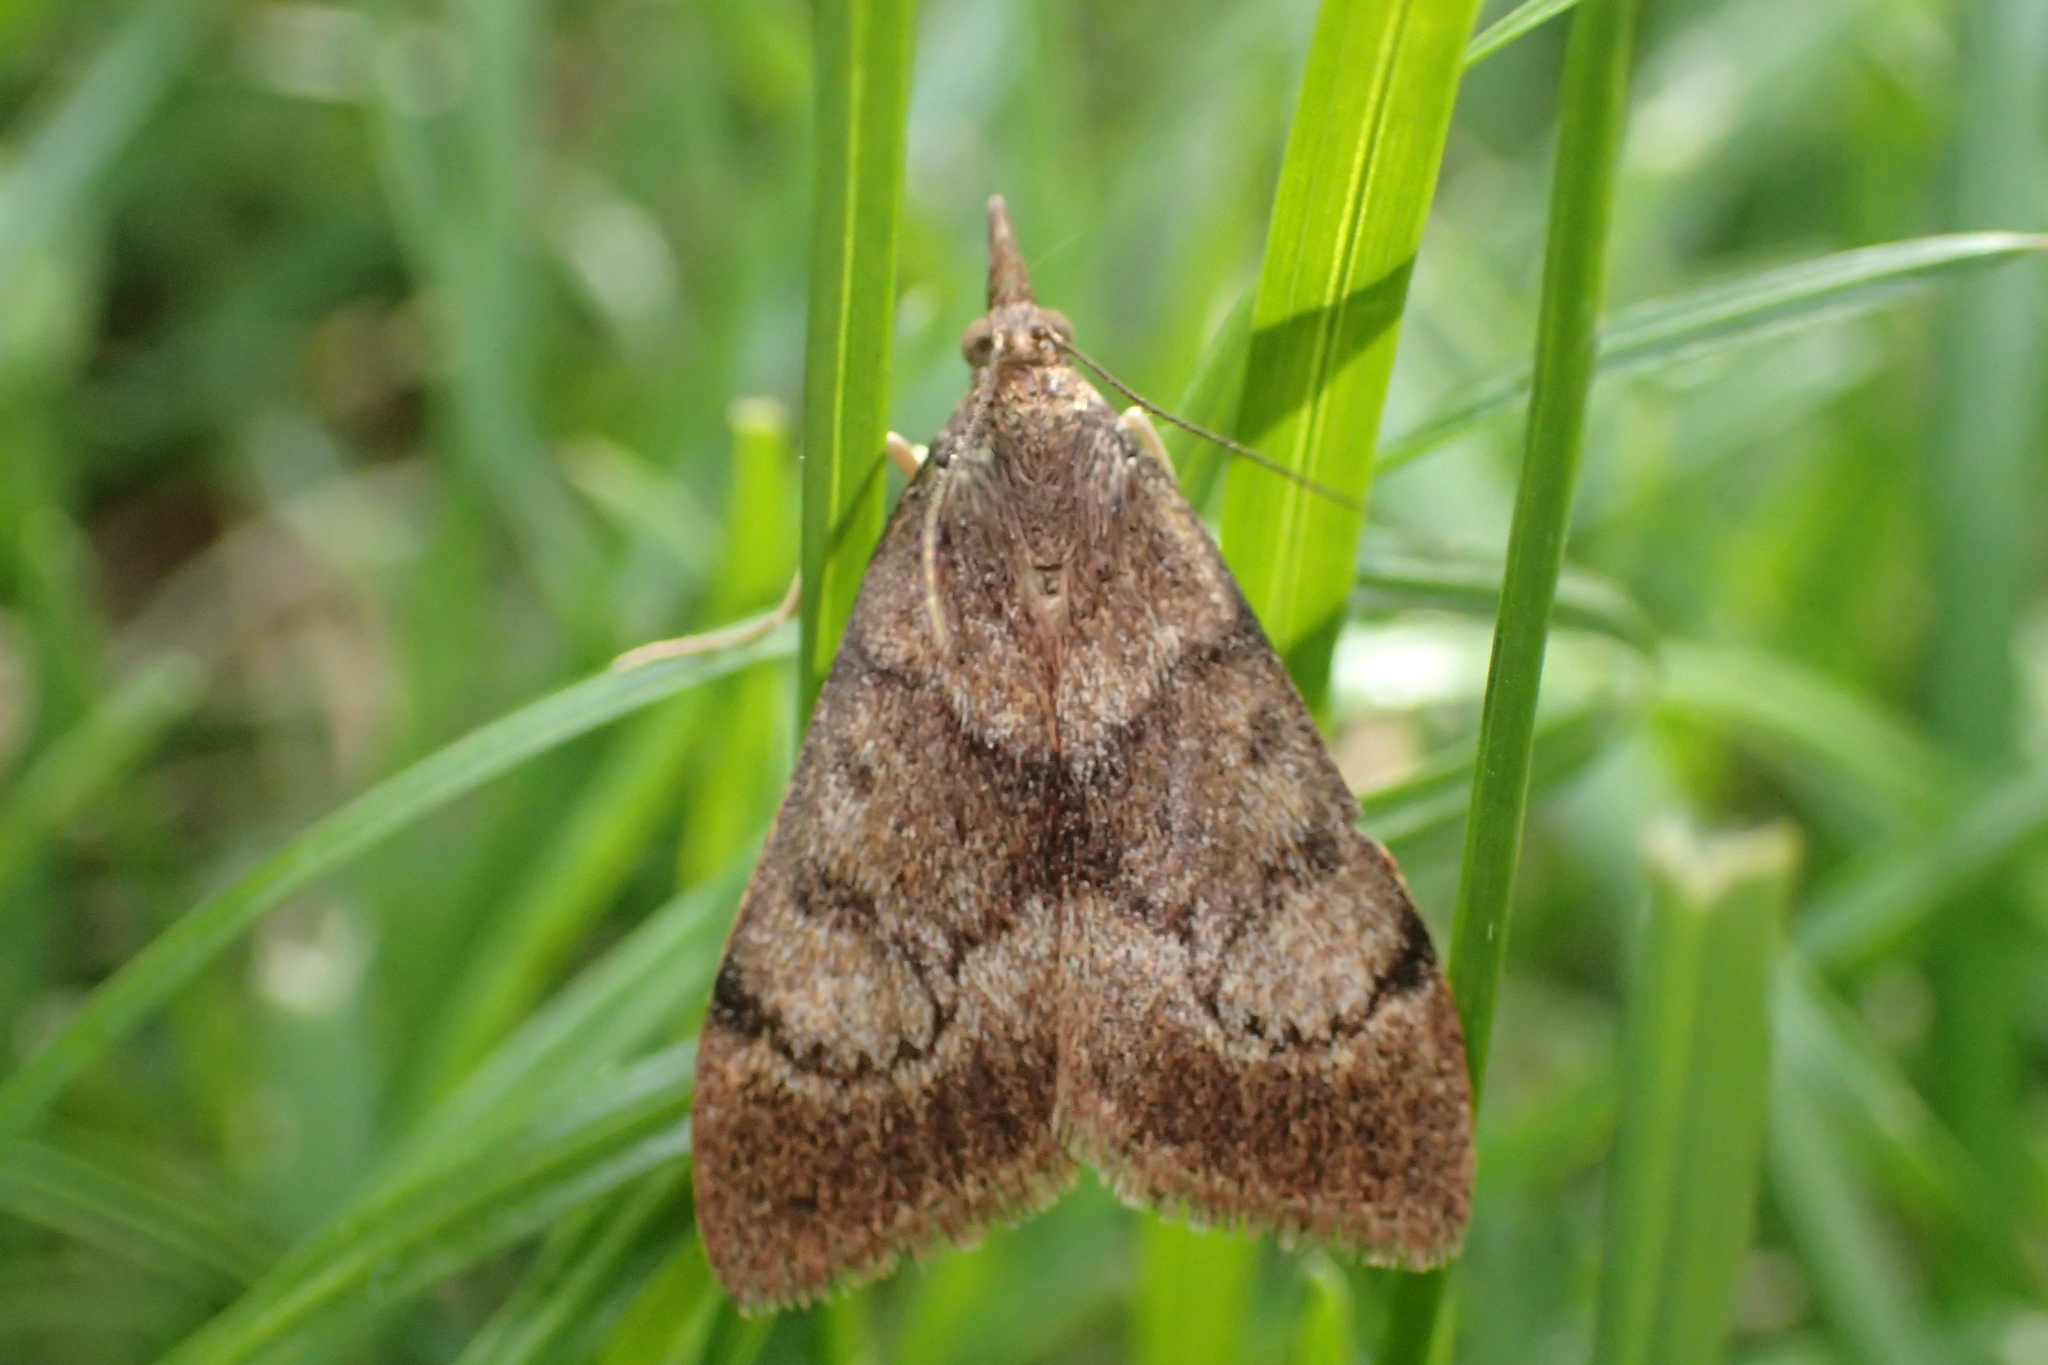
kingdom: Animalia
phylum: Arthropoda
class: Insecta
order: Lepidoptera
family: Crambidae
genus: Uresiphita
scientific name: Uresiphita
